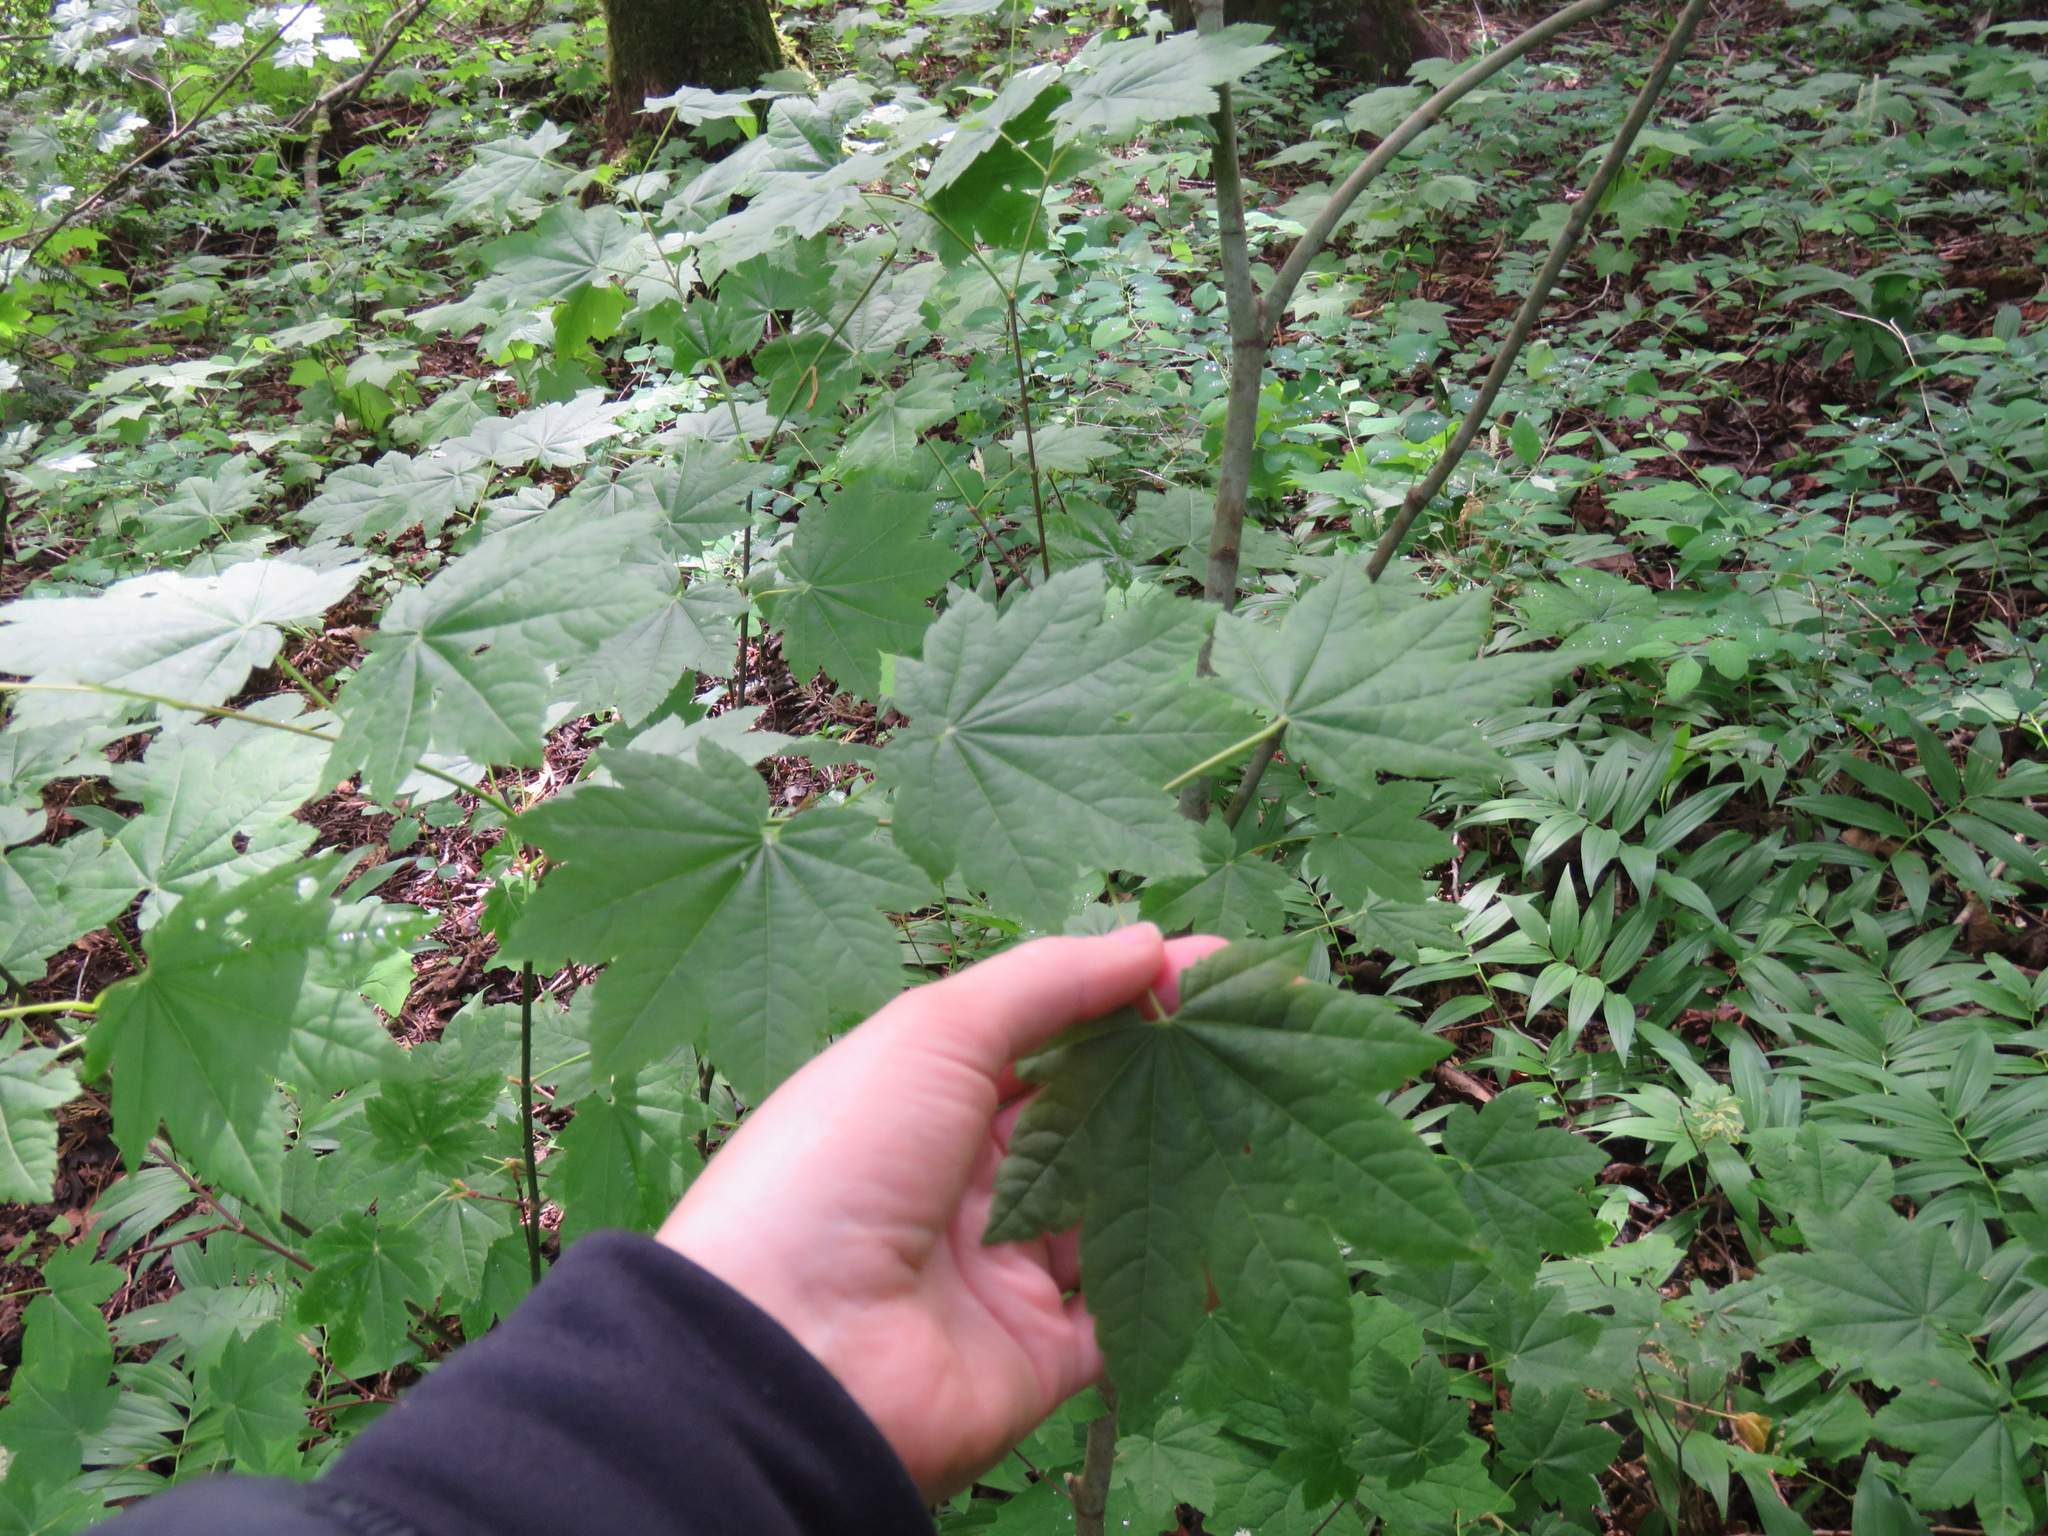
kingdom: Plantae
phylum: Tracheophyta
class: Magnoliopsida
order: Sapindales
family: Sapindaceae
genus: Acer
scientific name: Acer circinatum
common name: Vine maple
